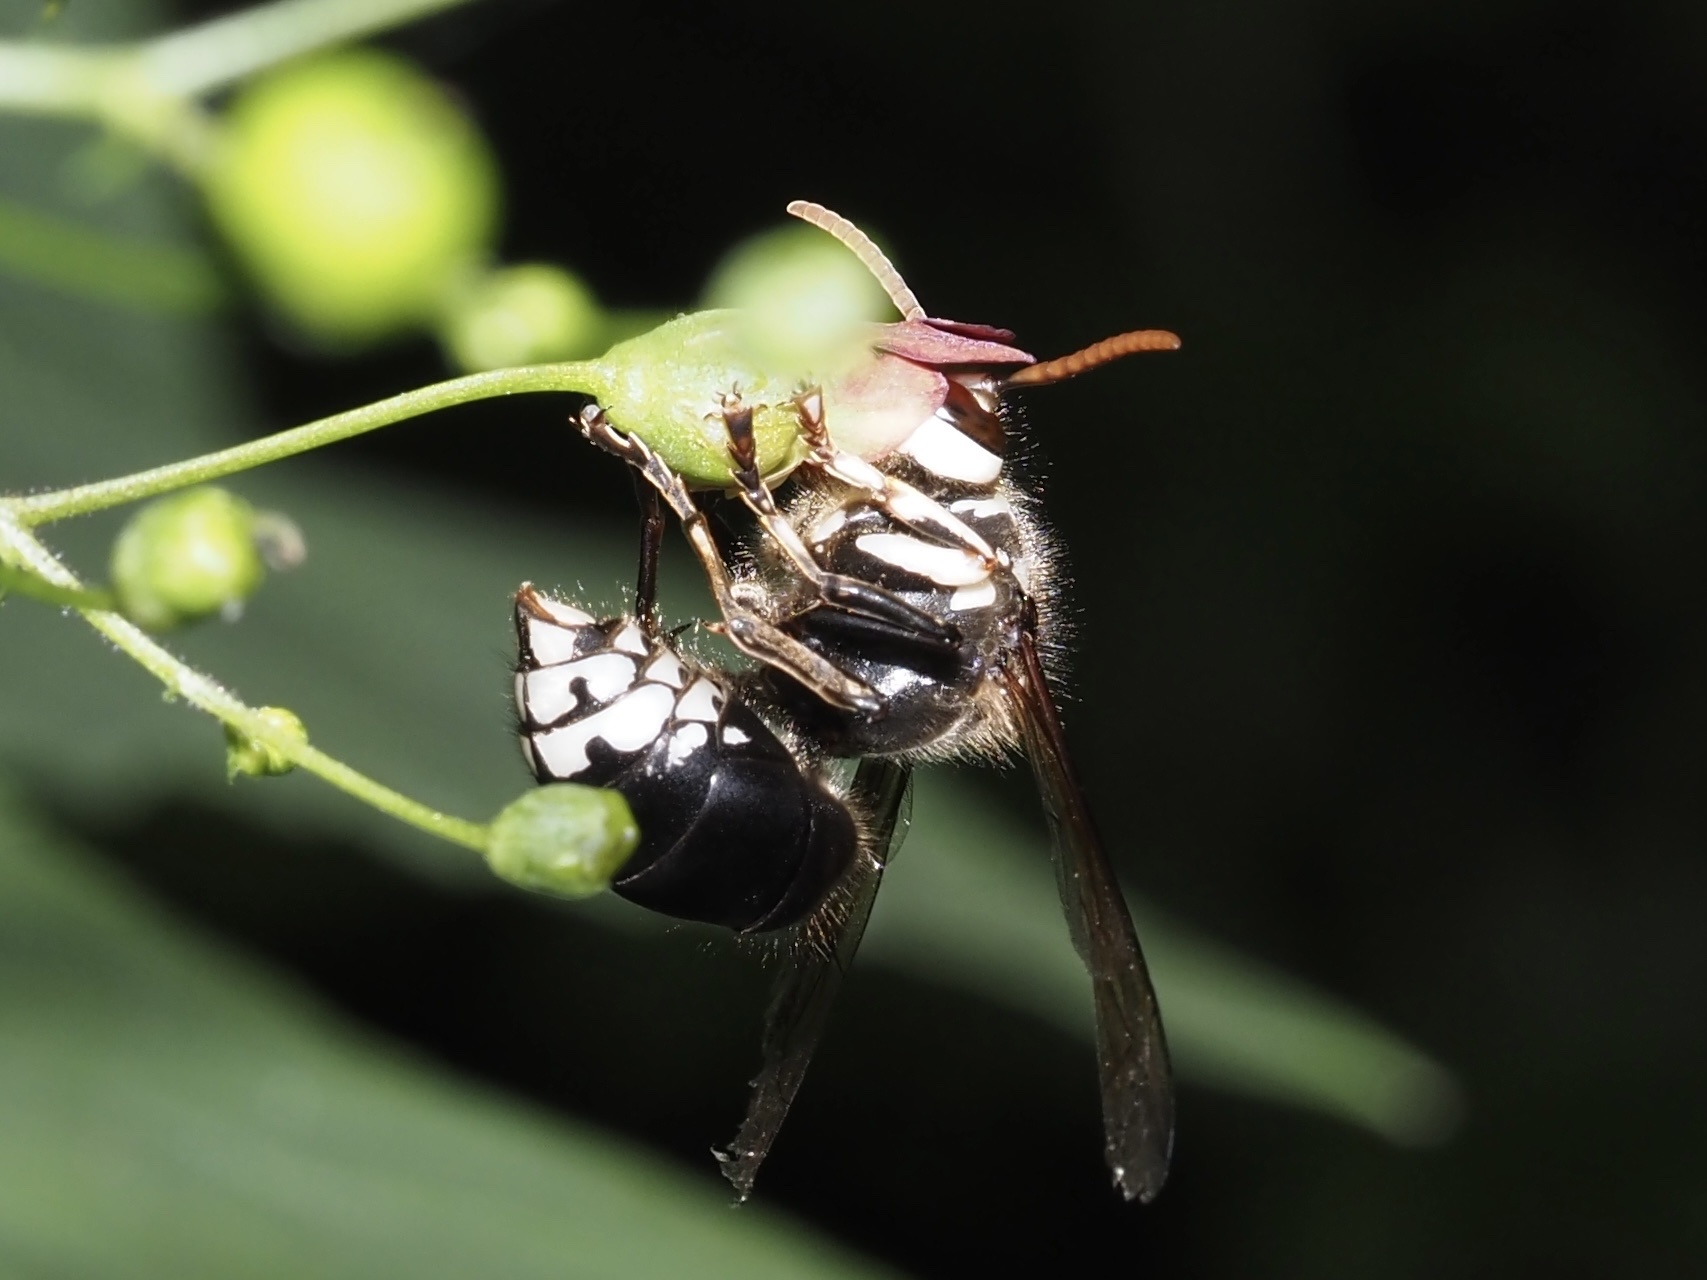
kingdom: Animalia
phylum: Arthropoda
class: Insecta
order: Hymenoptera
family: Vespidae
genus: Dolichovespula
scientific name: Dolichovespula maculata
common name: Bald-faced hornet
